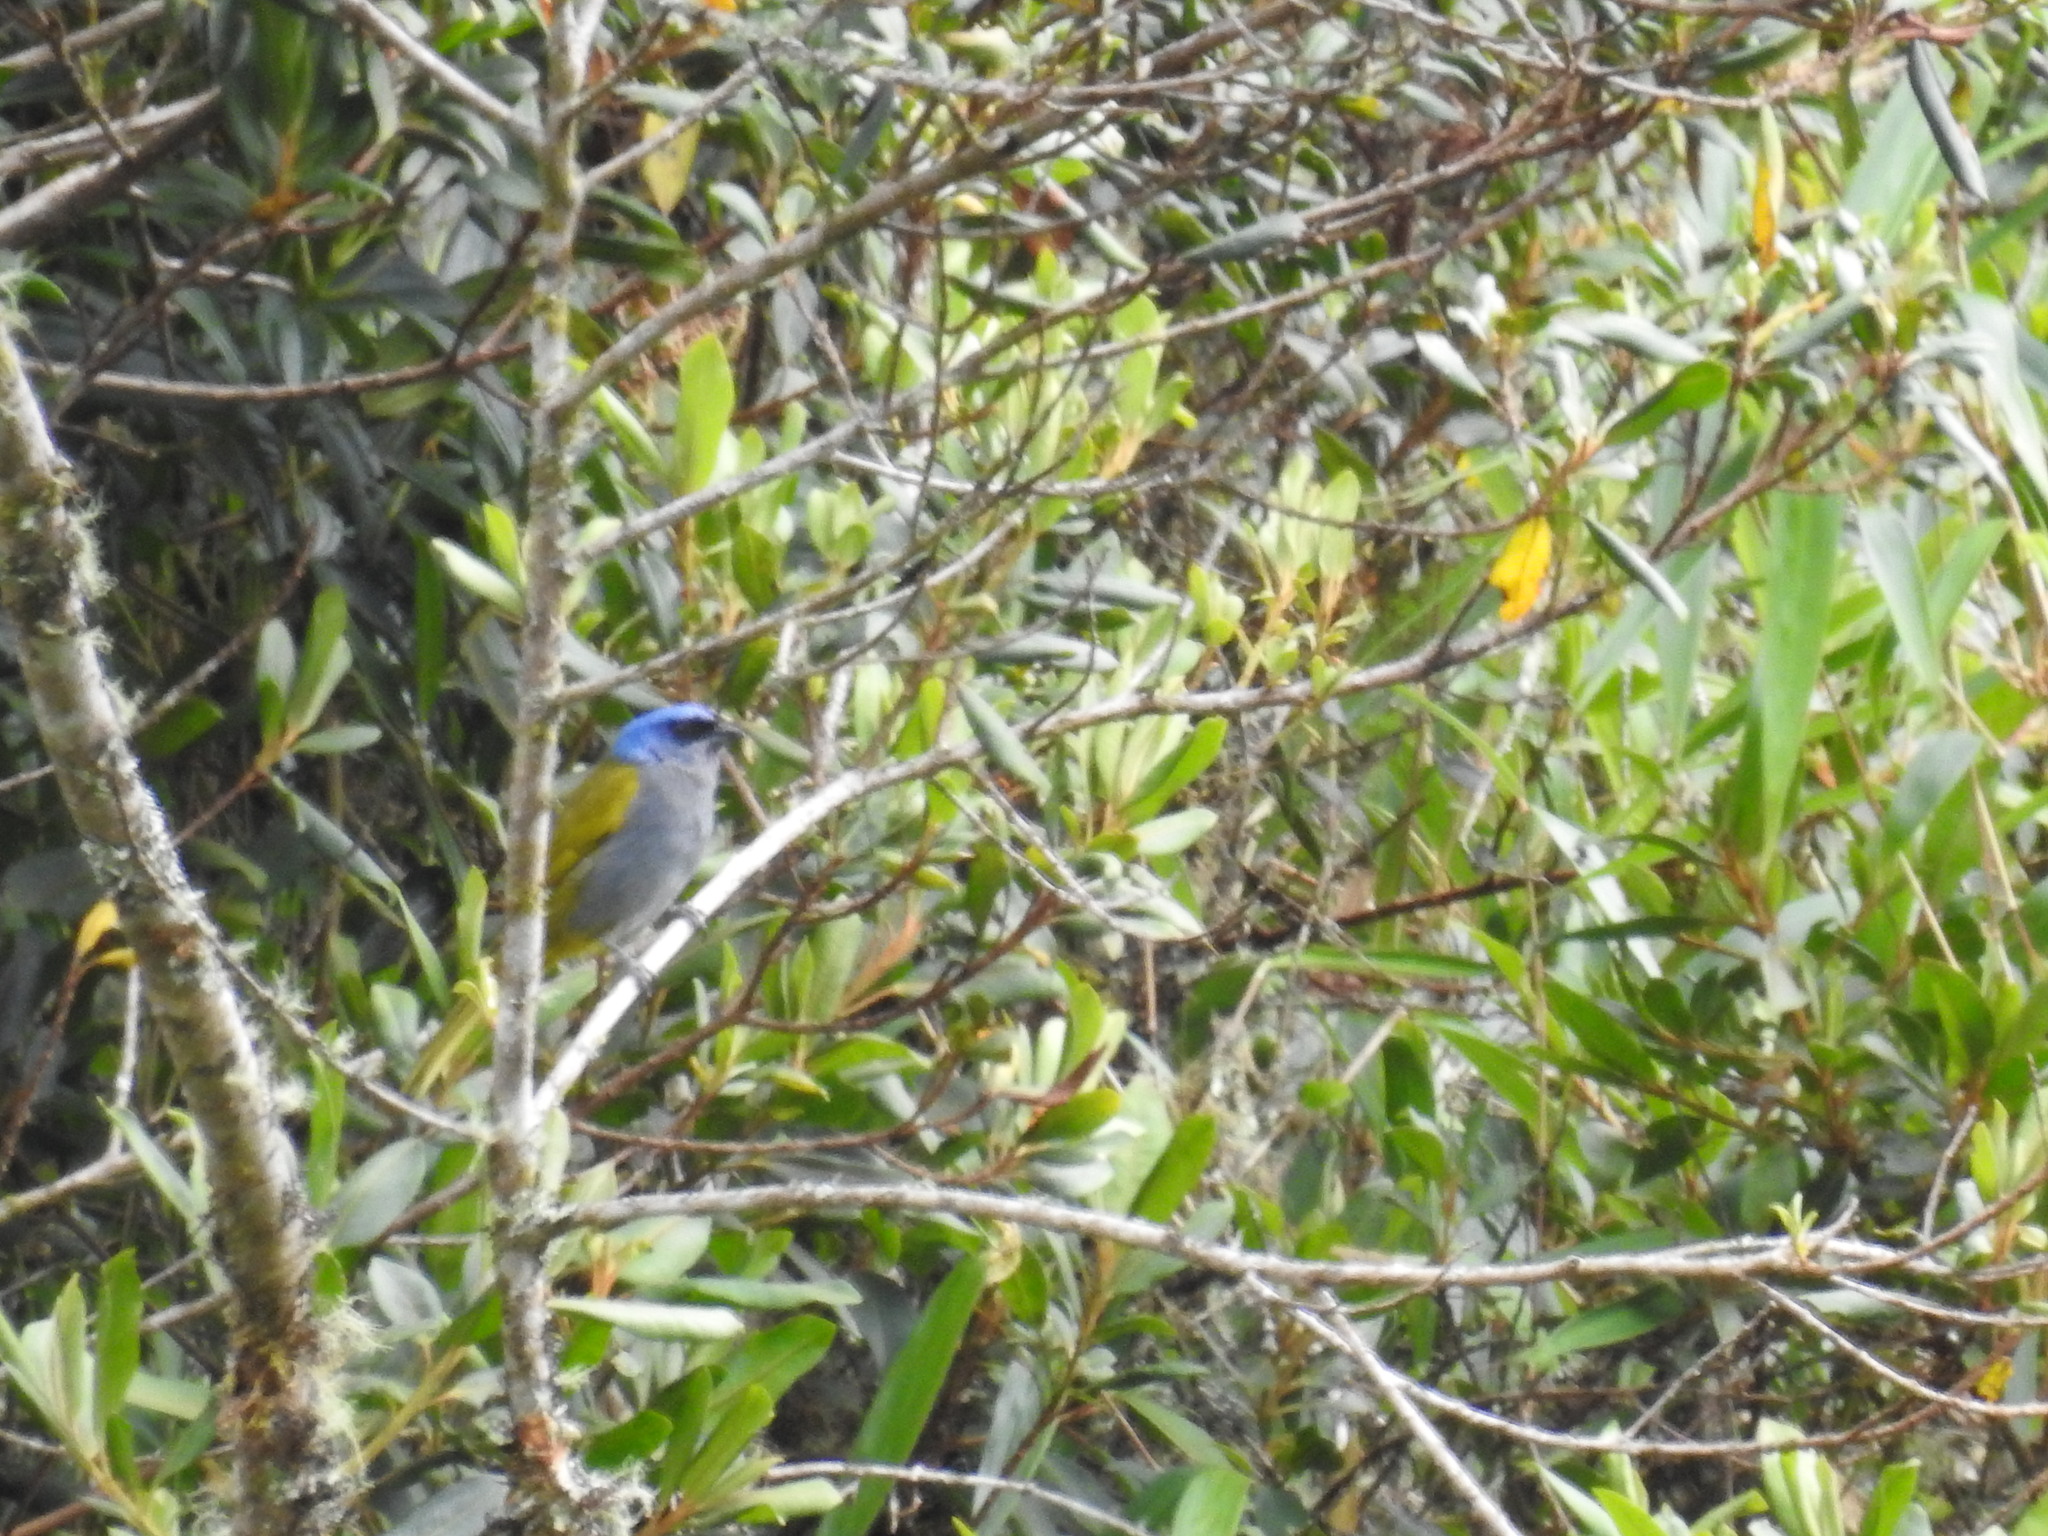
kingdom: Animalia
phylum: Chordata
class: Aves
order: Passeriformes
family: Thraupidae
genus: Sporathraupis
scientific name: Sporathraupis cyanocephala
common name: Blue-capped tanager
